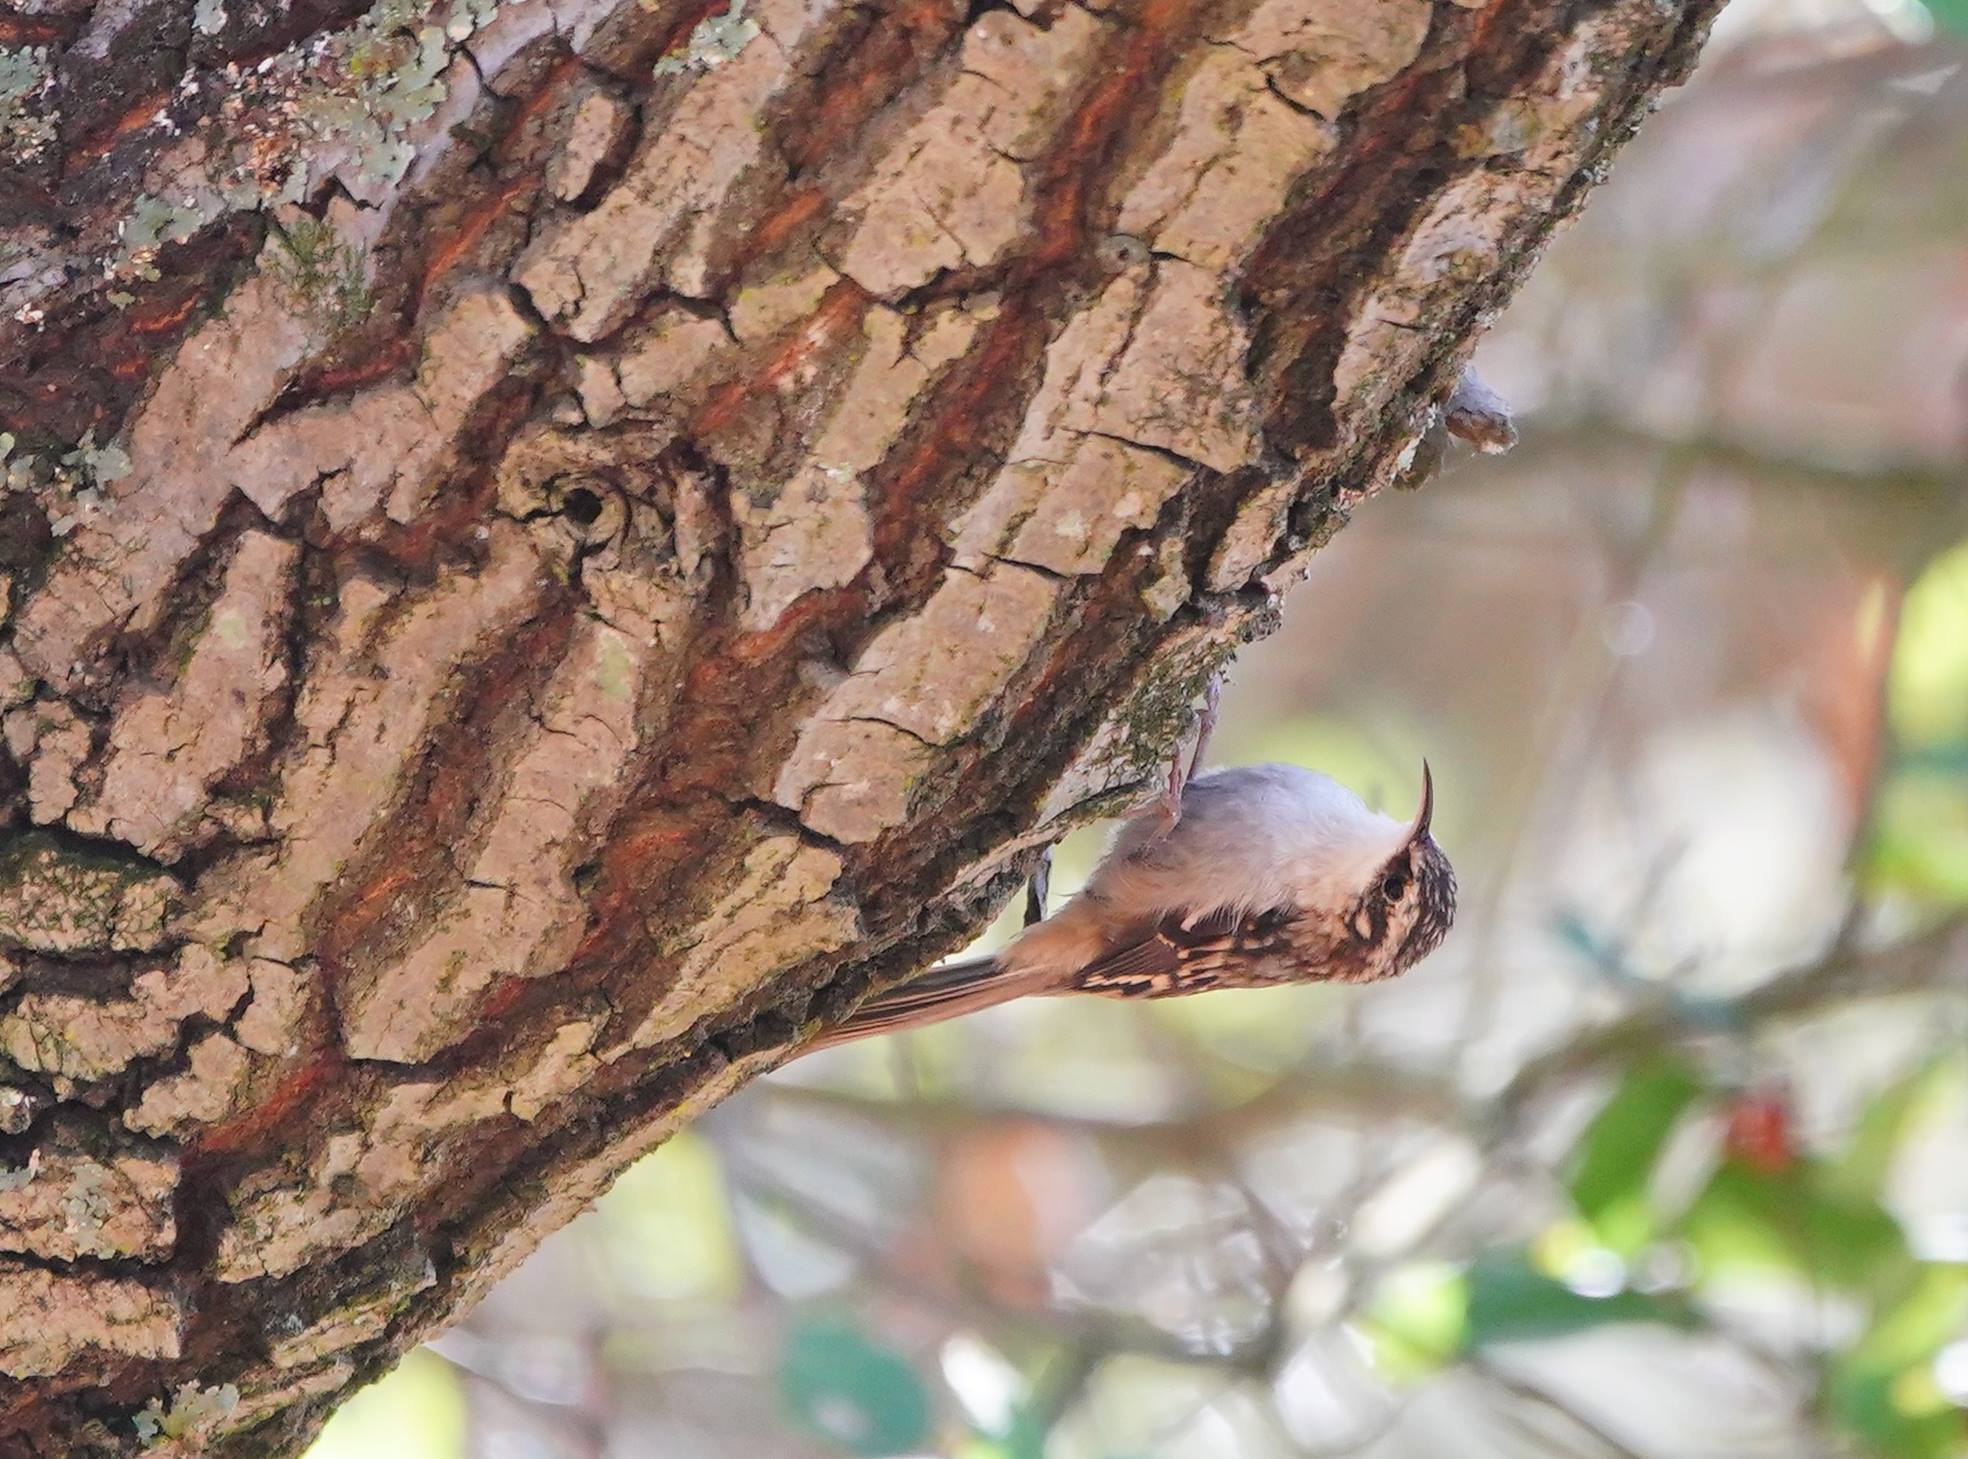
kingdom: Animalia
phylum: Chordata
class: Aves
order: Passeriformes
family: Certhiidae
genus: Certhia
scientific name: Certhia americana
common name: Brown creeper
